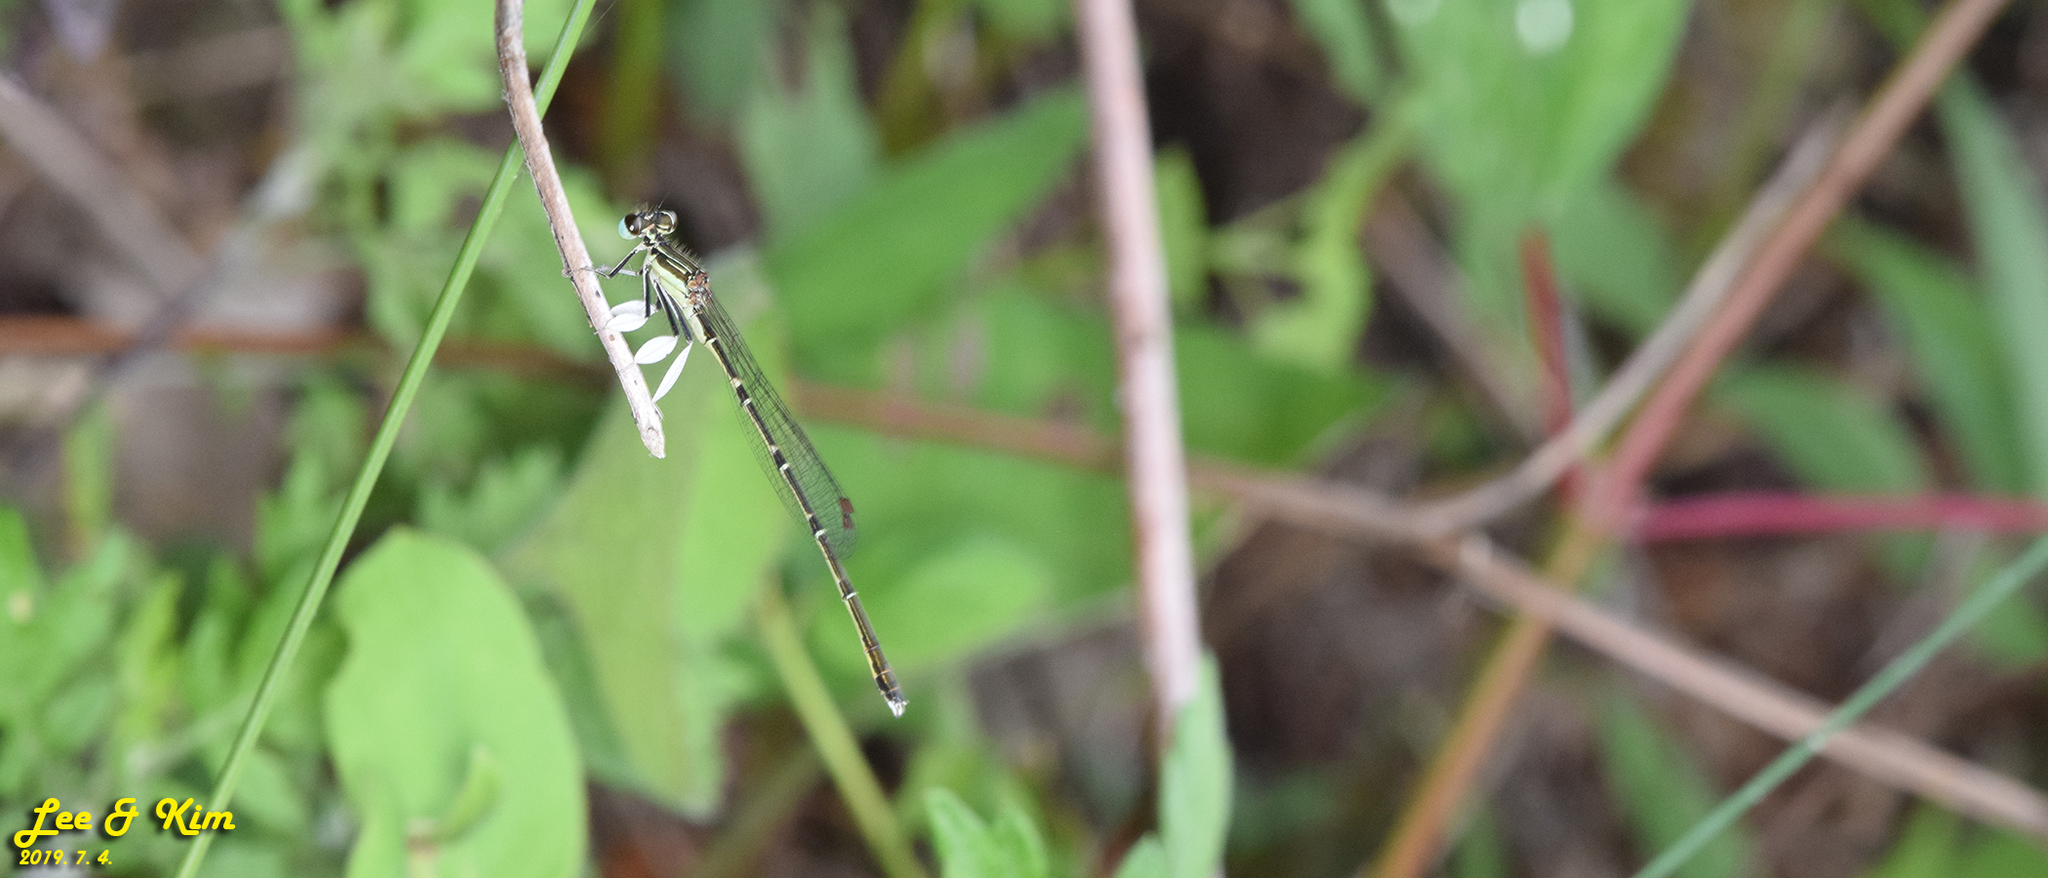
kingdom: Animalia
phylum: Arthropoda
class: Insecta
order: Odonata
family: Platycnemididae
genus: Platycnemis
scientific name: Platycnemis phyllopoda
